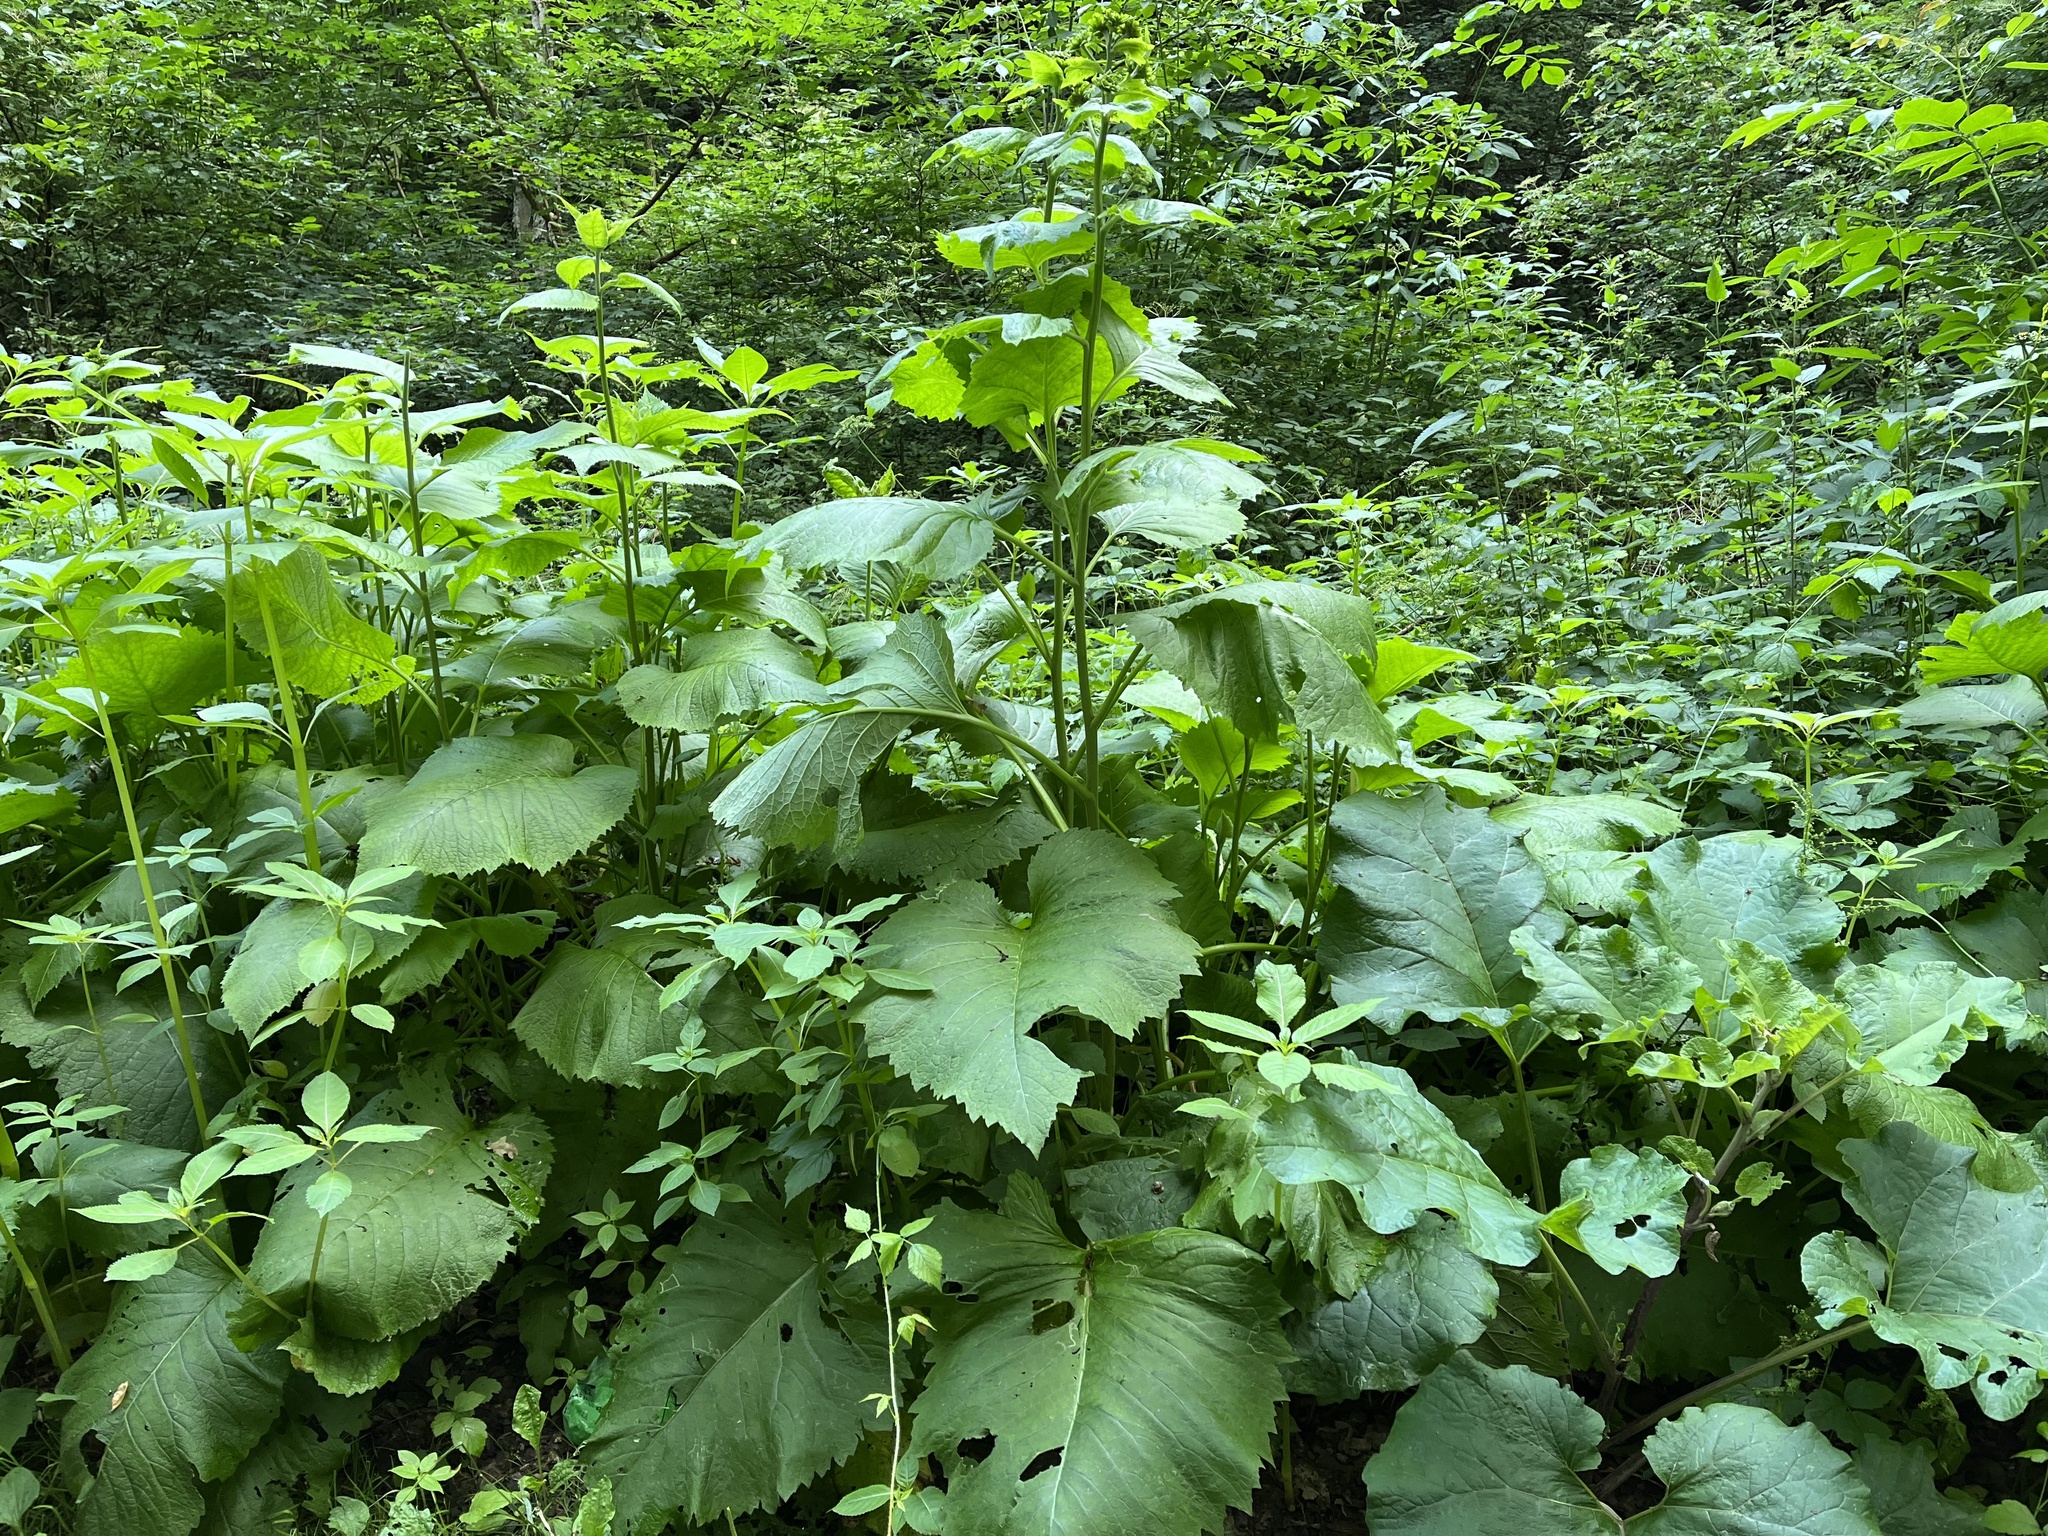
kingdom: Plantae
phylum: Tracheophyta
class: Magnoliopsida
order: Asterales
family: Asteraceae
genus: Telekia
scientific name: Telekia speciosa
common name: Yellow oxeye
